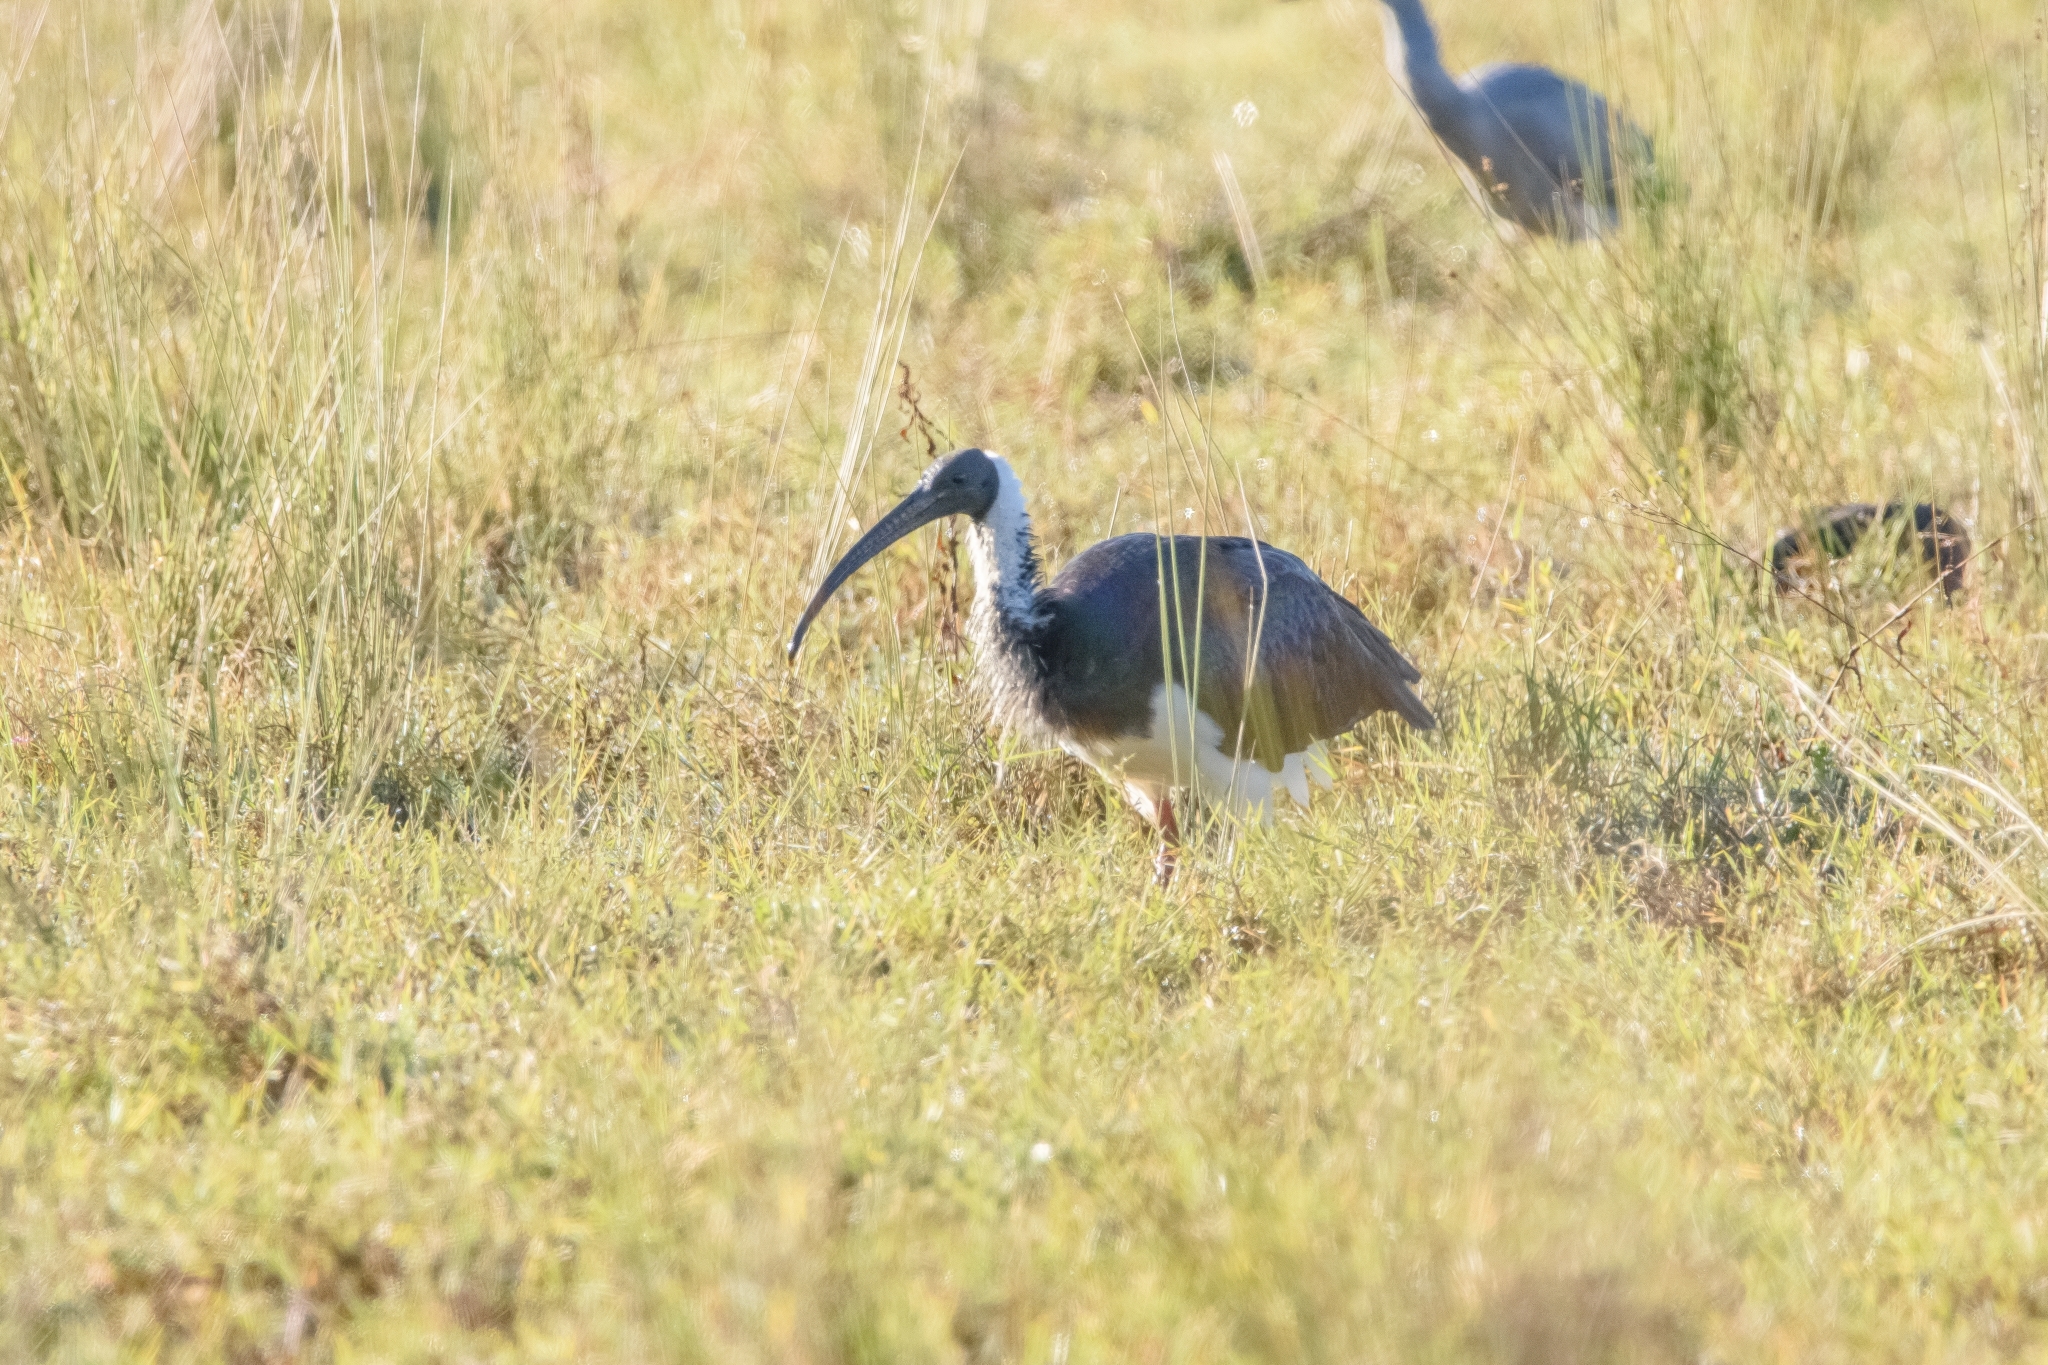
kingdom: Animalia
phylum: Chordata
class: Aves
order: Pelecaniformes
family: Threskiornithidae
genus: Threskiornis
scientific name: Threskiornis spinicollis
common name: Straw-necked ibis
